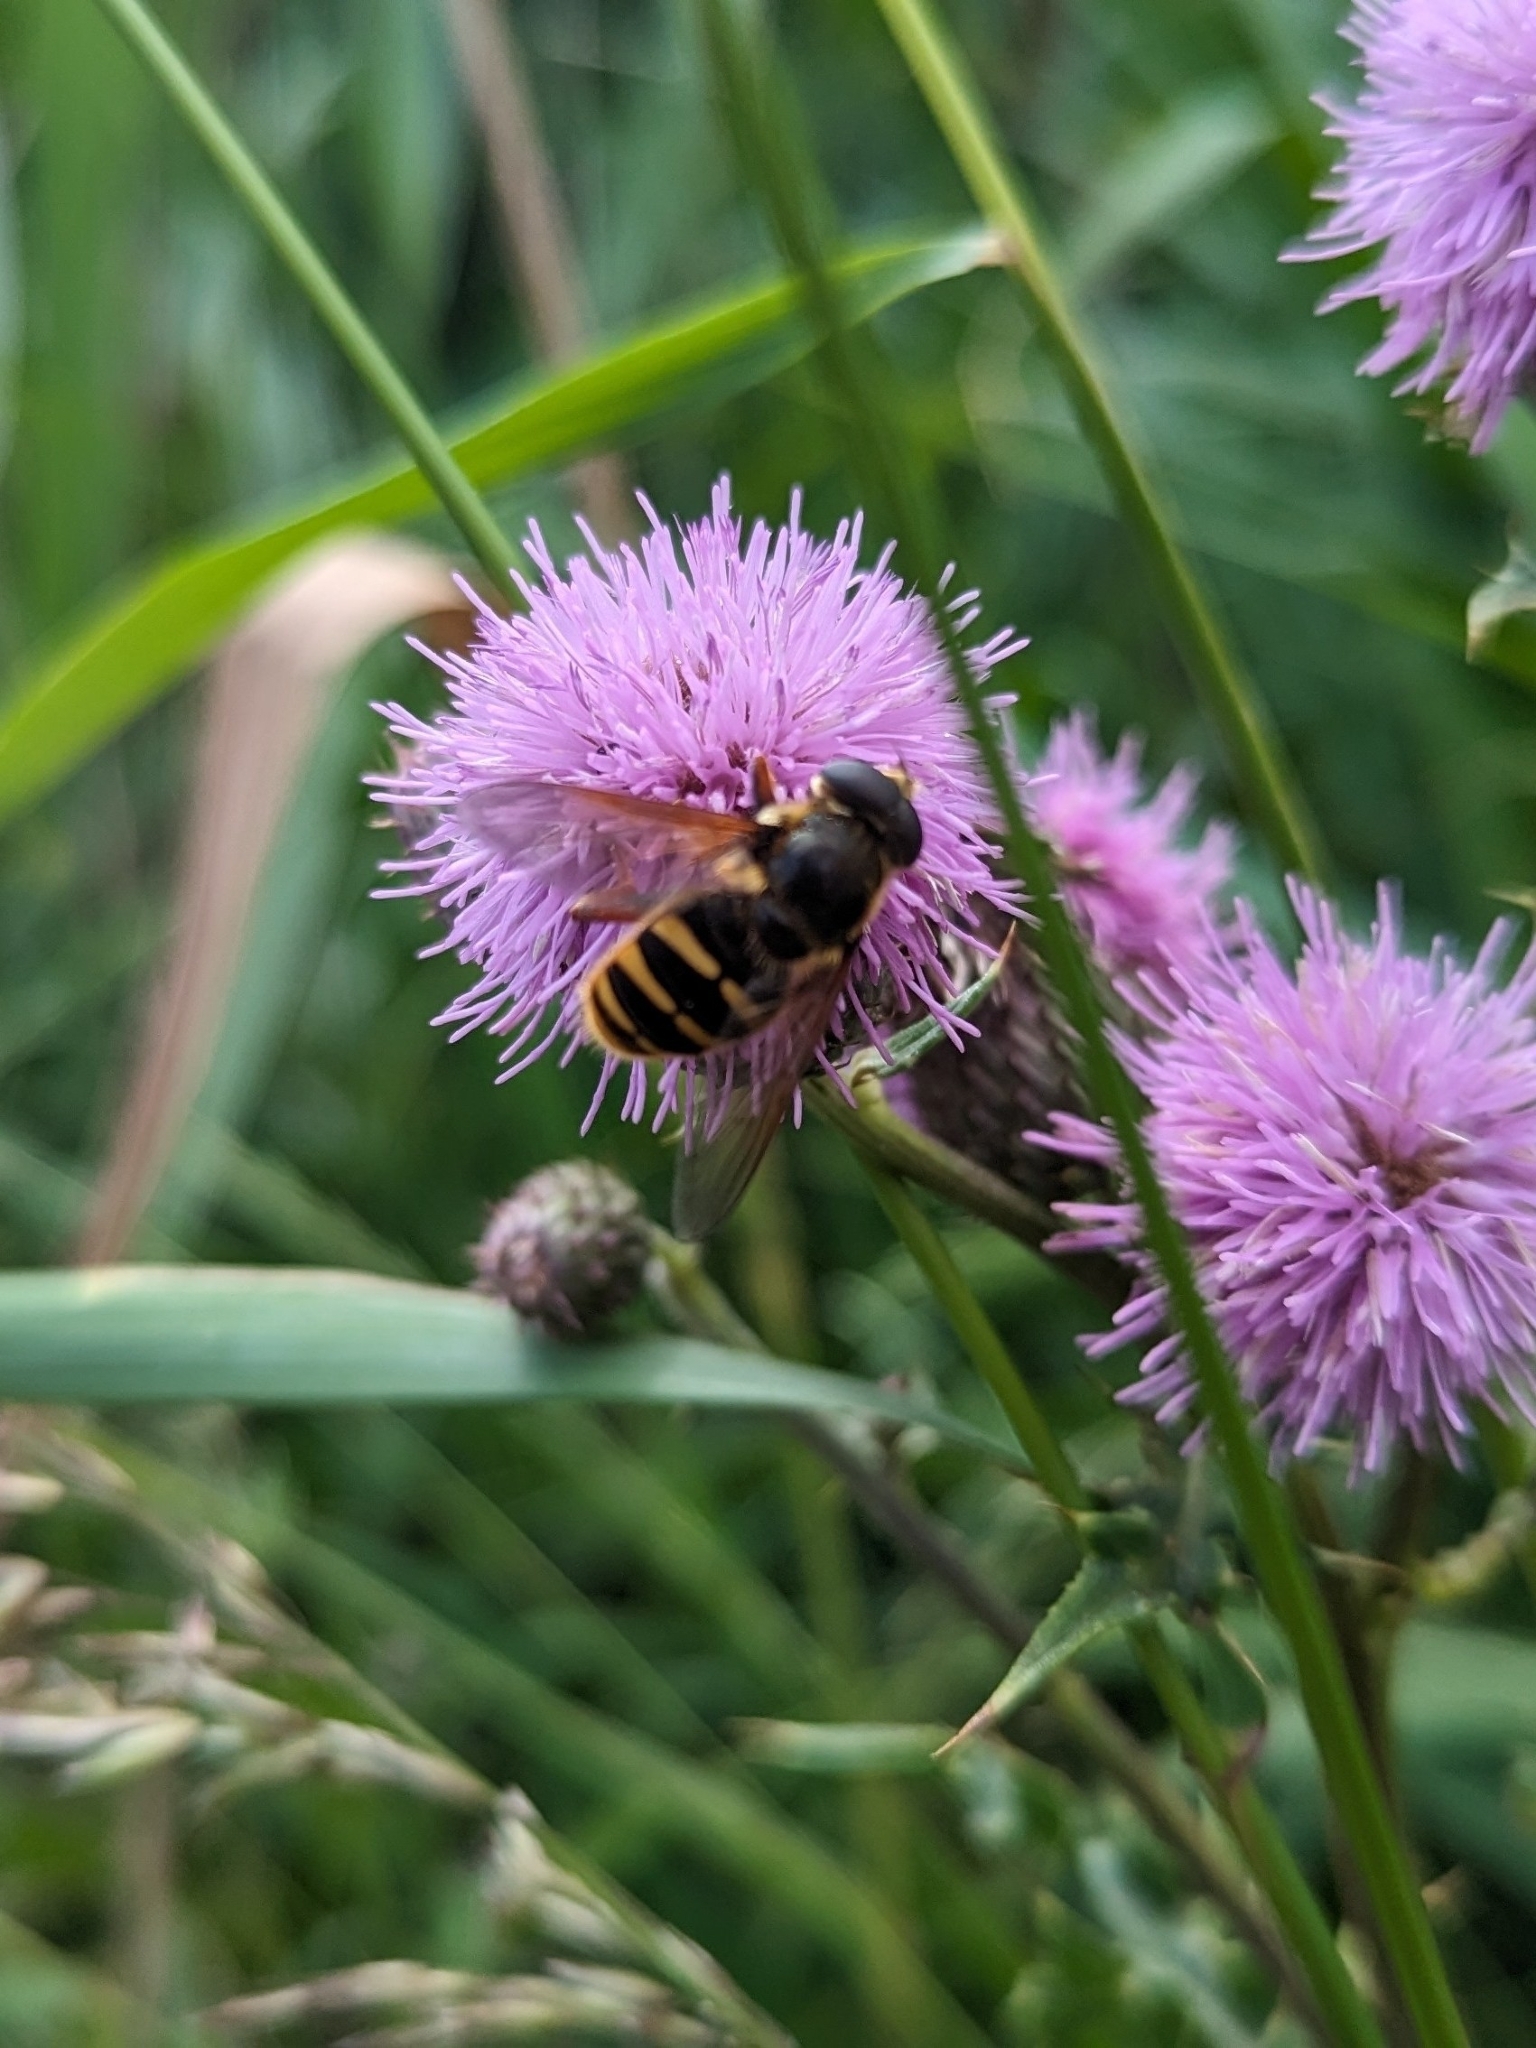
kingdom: Animalia
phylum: Arthropoda
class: Insecta
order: Diptera
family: Syrphidae
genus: Sericomyia
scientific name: Sericomyia silentis
